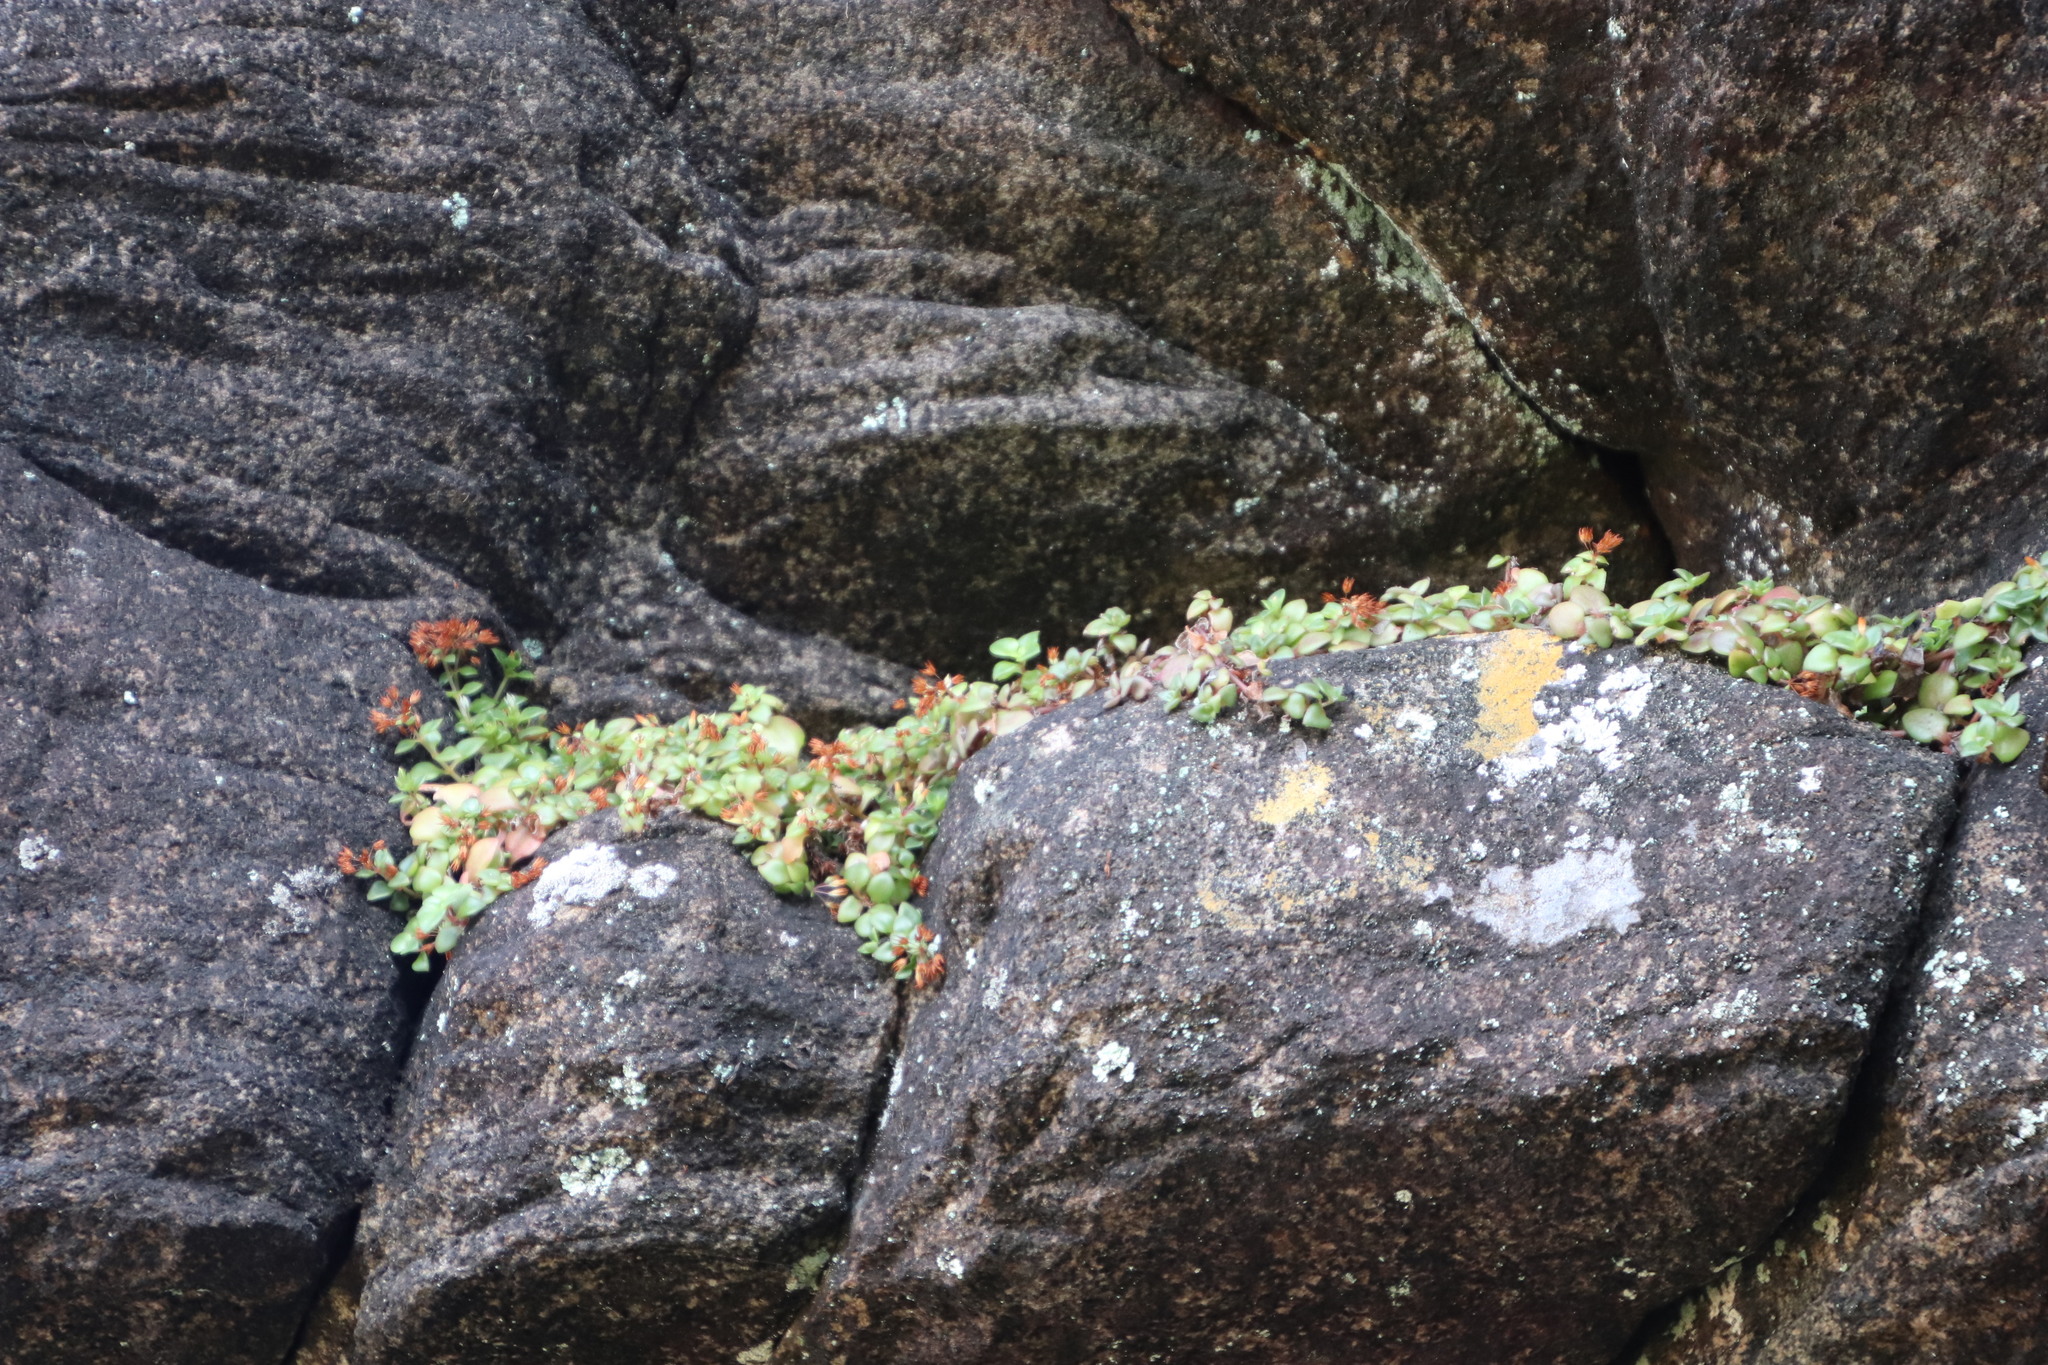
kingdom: Plantae
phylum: Tracheophyta
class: Magnoliopsida
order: Saxifragales
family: Crassulaceae
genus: Crassula
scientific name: Crassula pellucida
